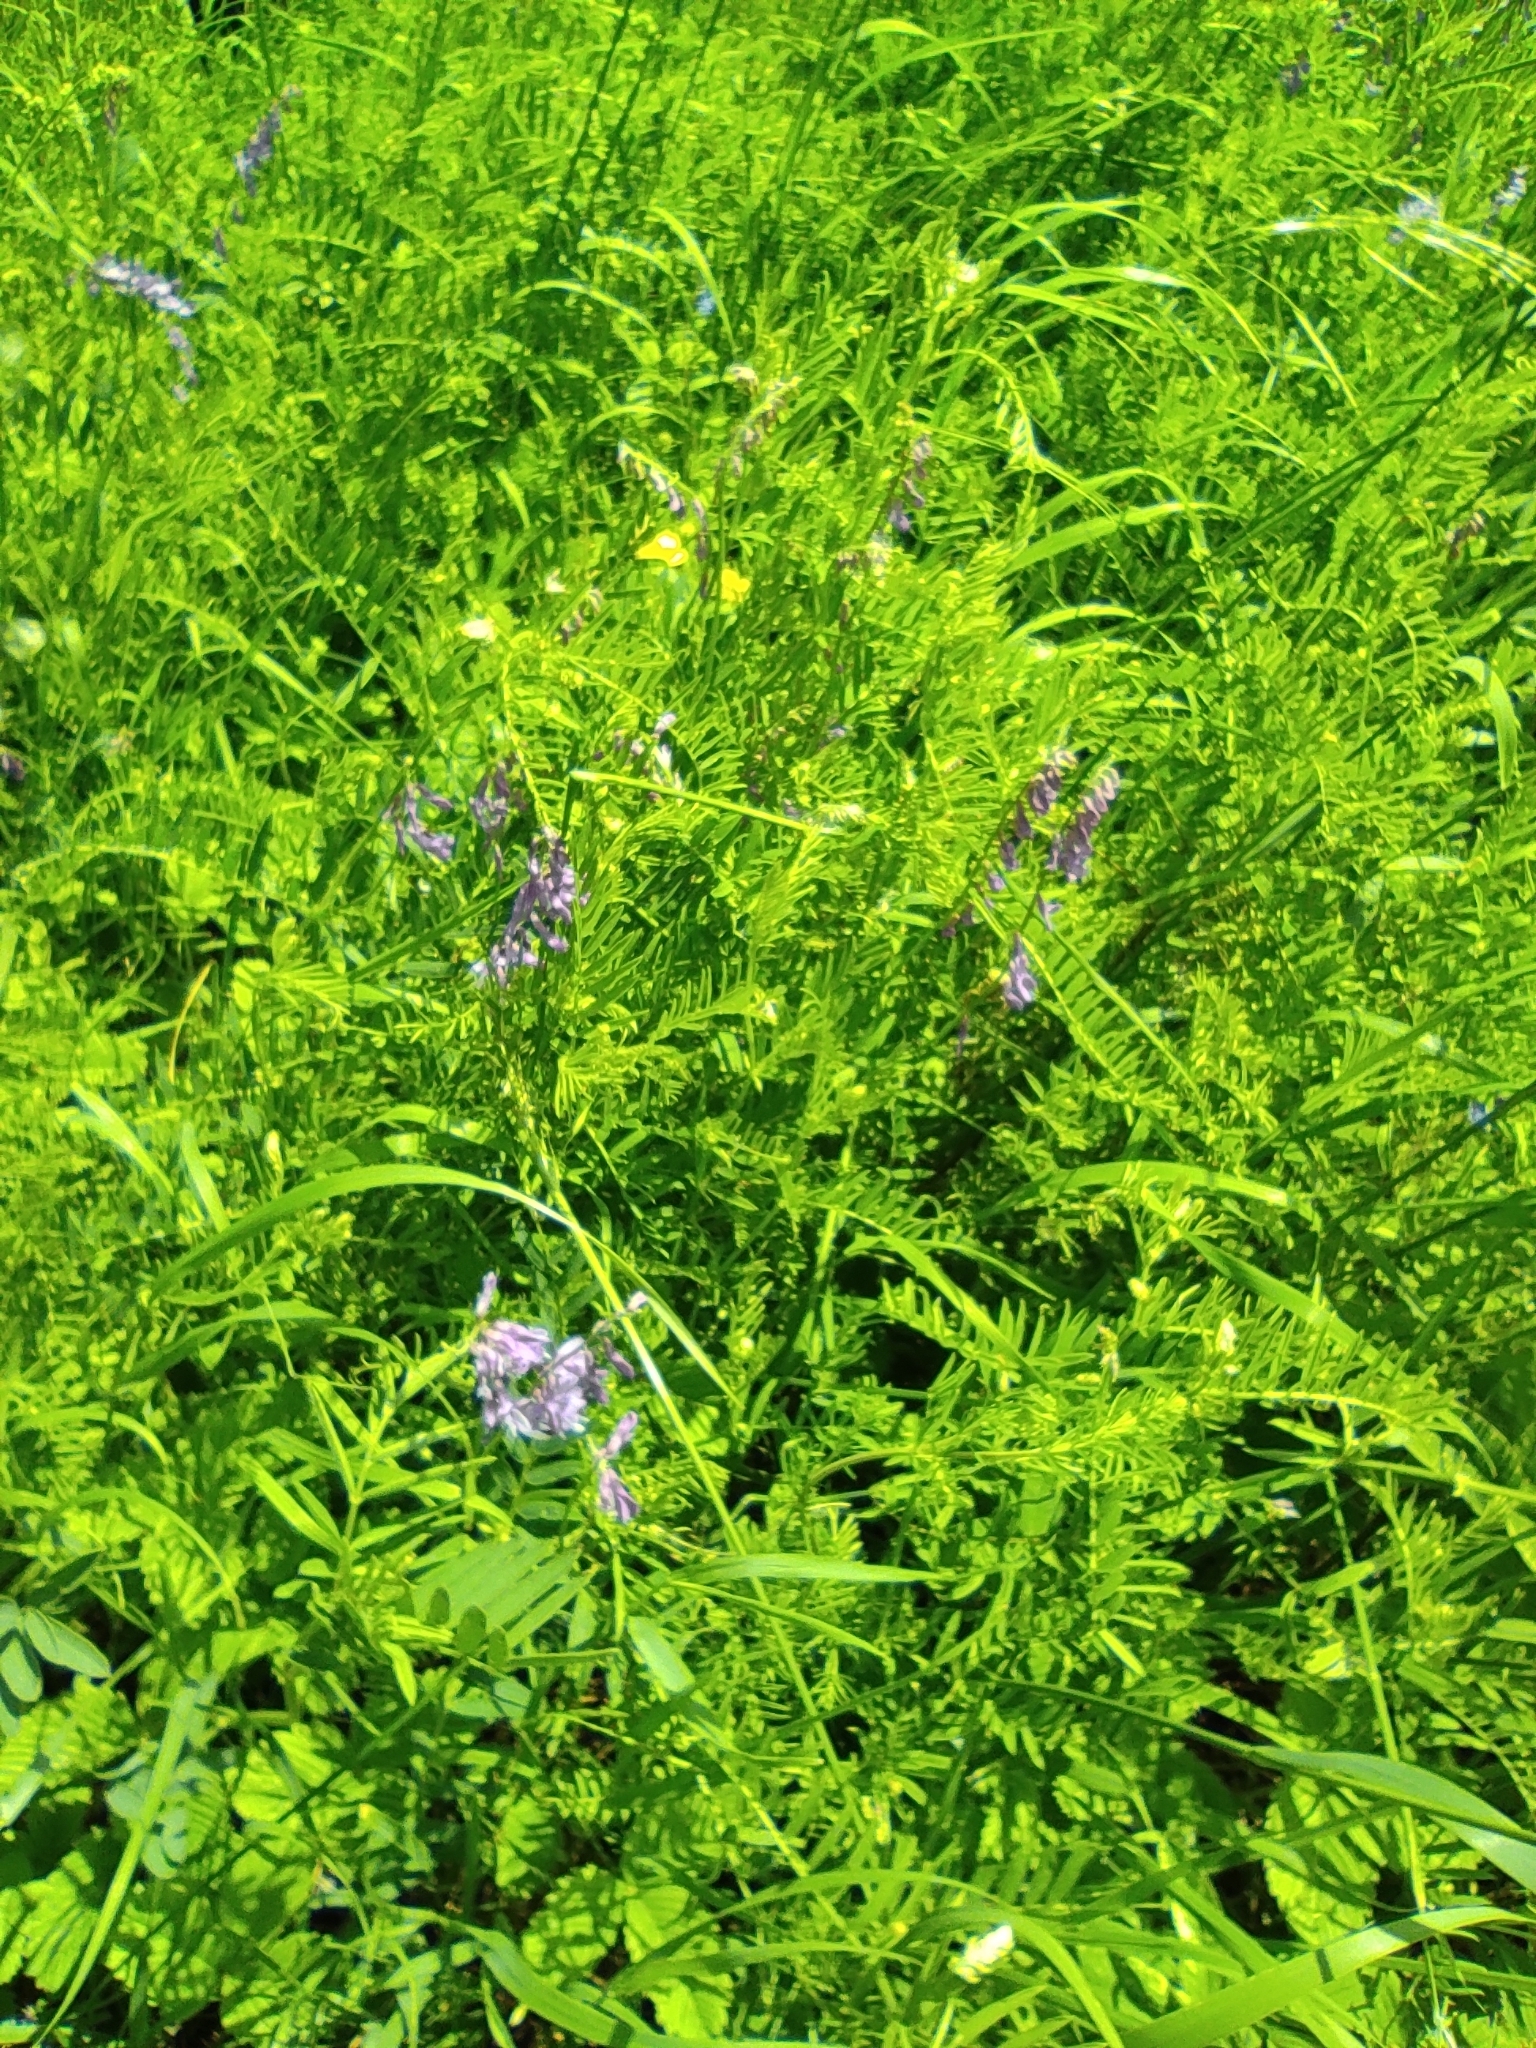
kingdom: Plantae
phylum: Tracheophyta
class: Magnoliopsida
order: Fabales
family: Fabaceae
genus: Vicia
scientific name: Vicia tenuifolia
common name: Fine-leaved vetch
